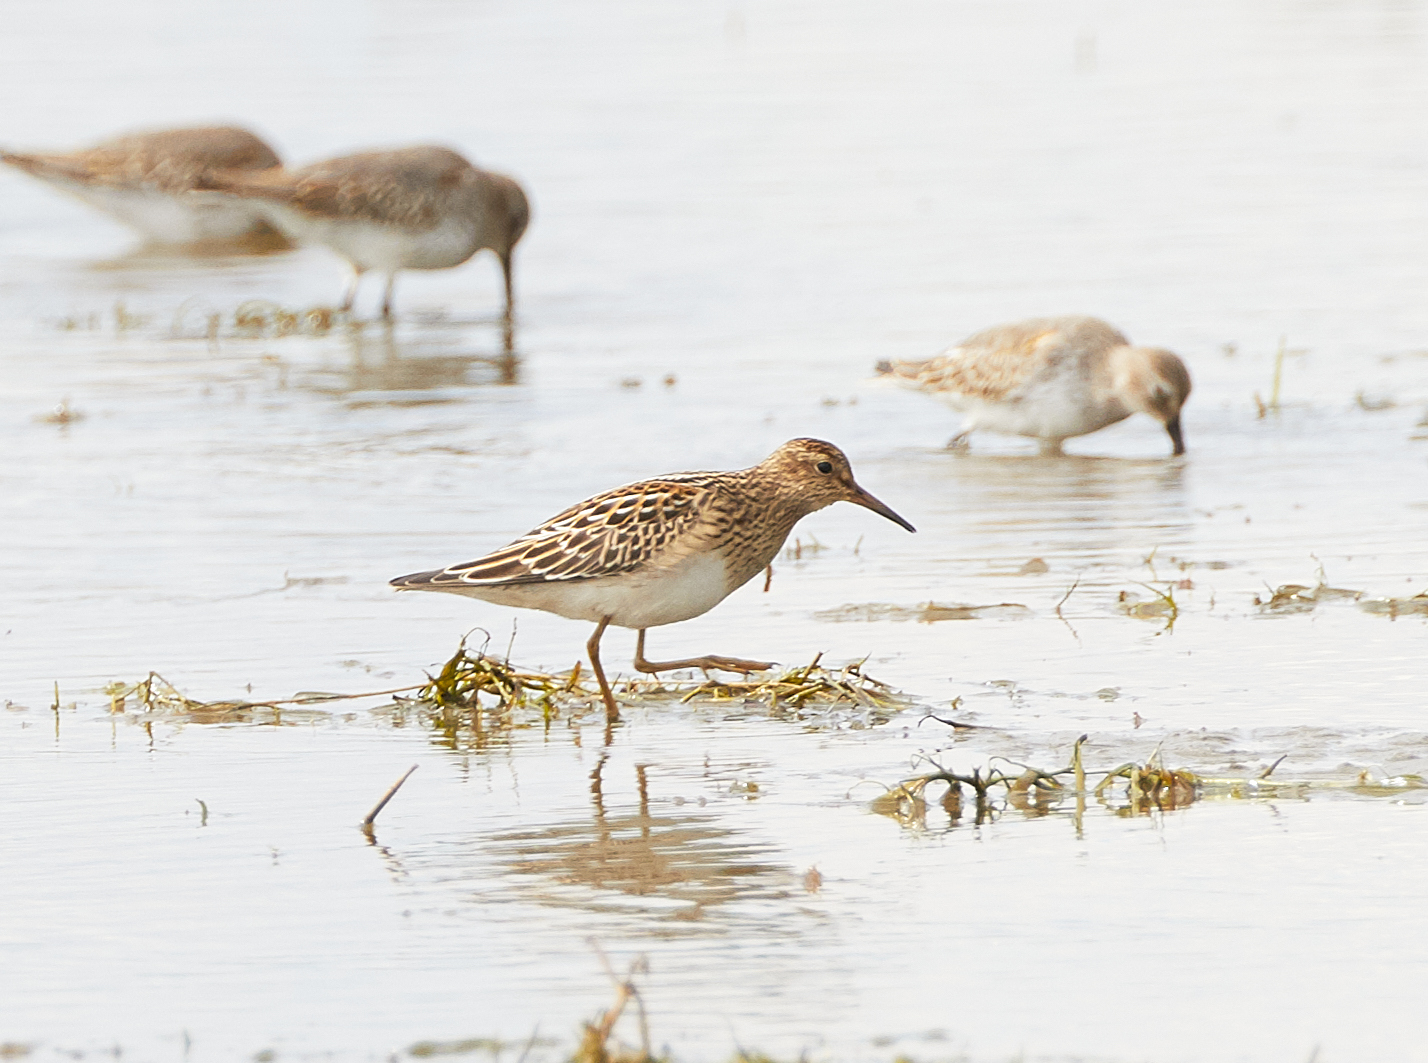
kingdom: Animalia
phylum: Chordata
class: Aves
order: Charadriiformes
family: Scolopacidae
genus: Calidris
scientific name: Calidris melanotos
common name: Pectoral sandpiper
